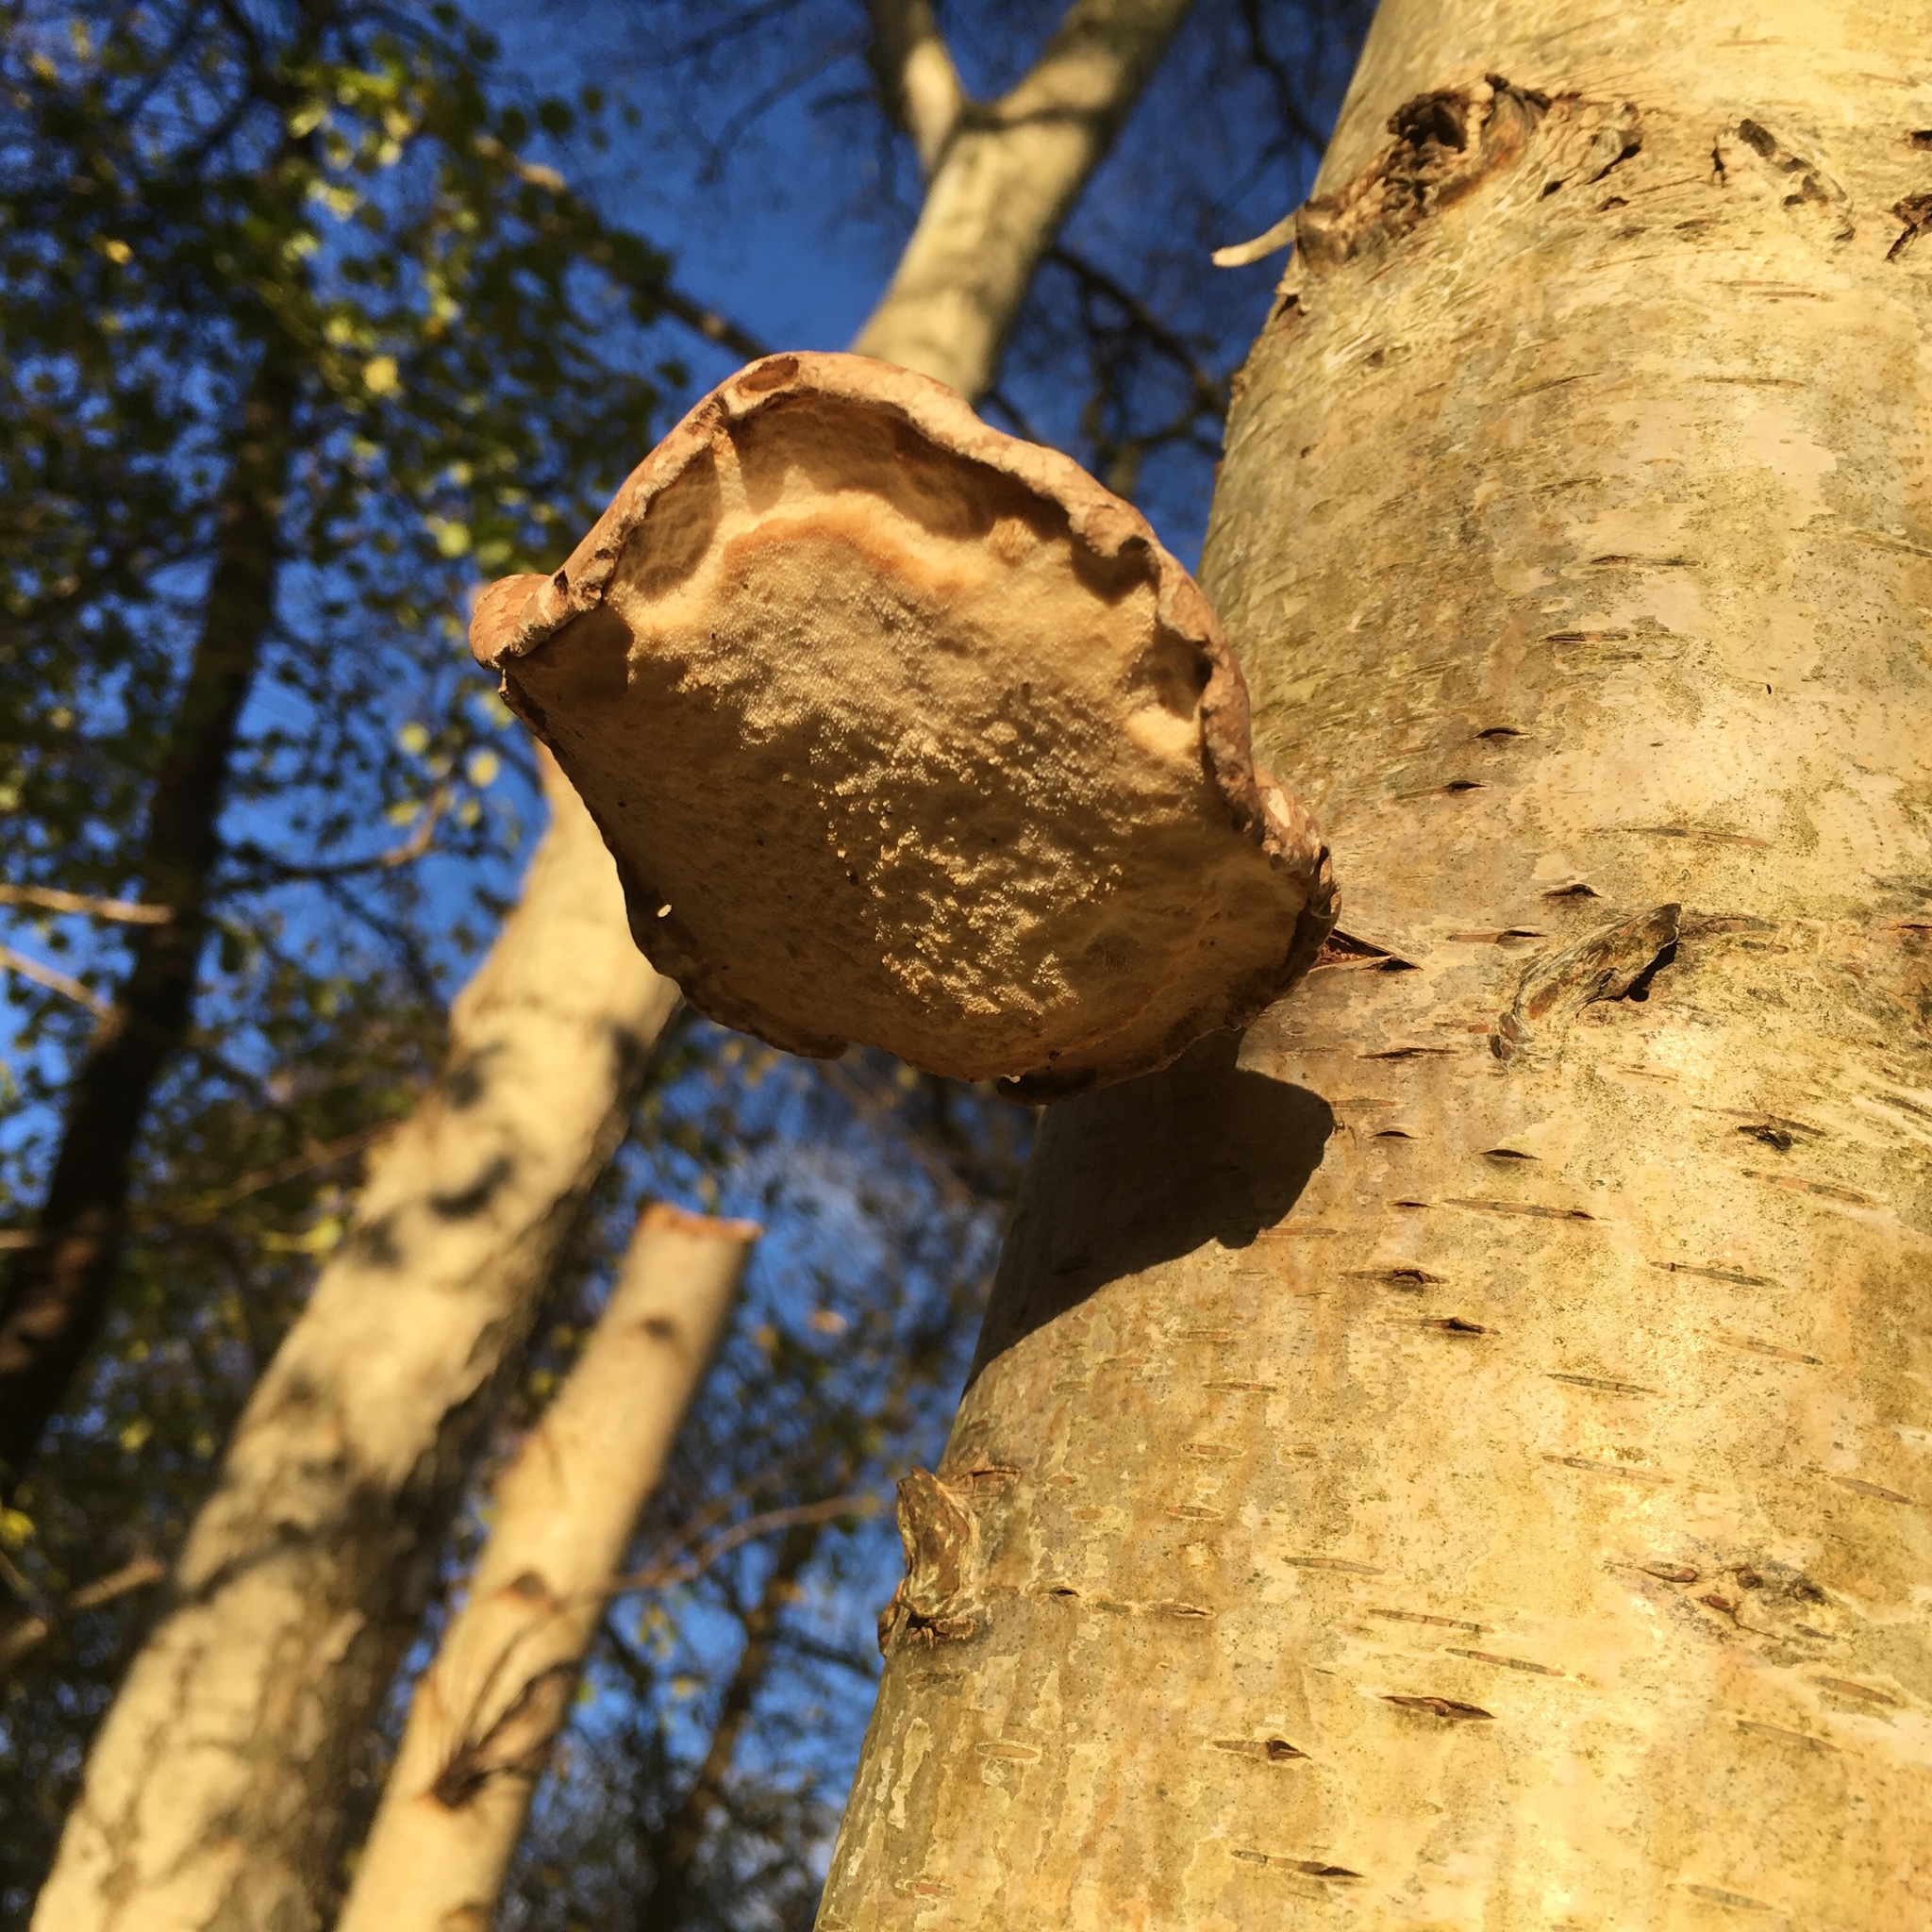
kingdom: Fungi
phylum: Basidiomycota
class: Agaricomycetes
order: Polyporales
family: Fomitopsidaceae
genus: Fomitopsis
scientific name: Fomitopsis betulina
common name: Birch polypore
